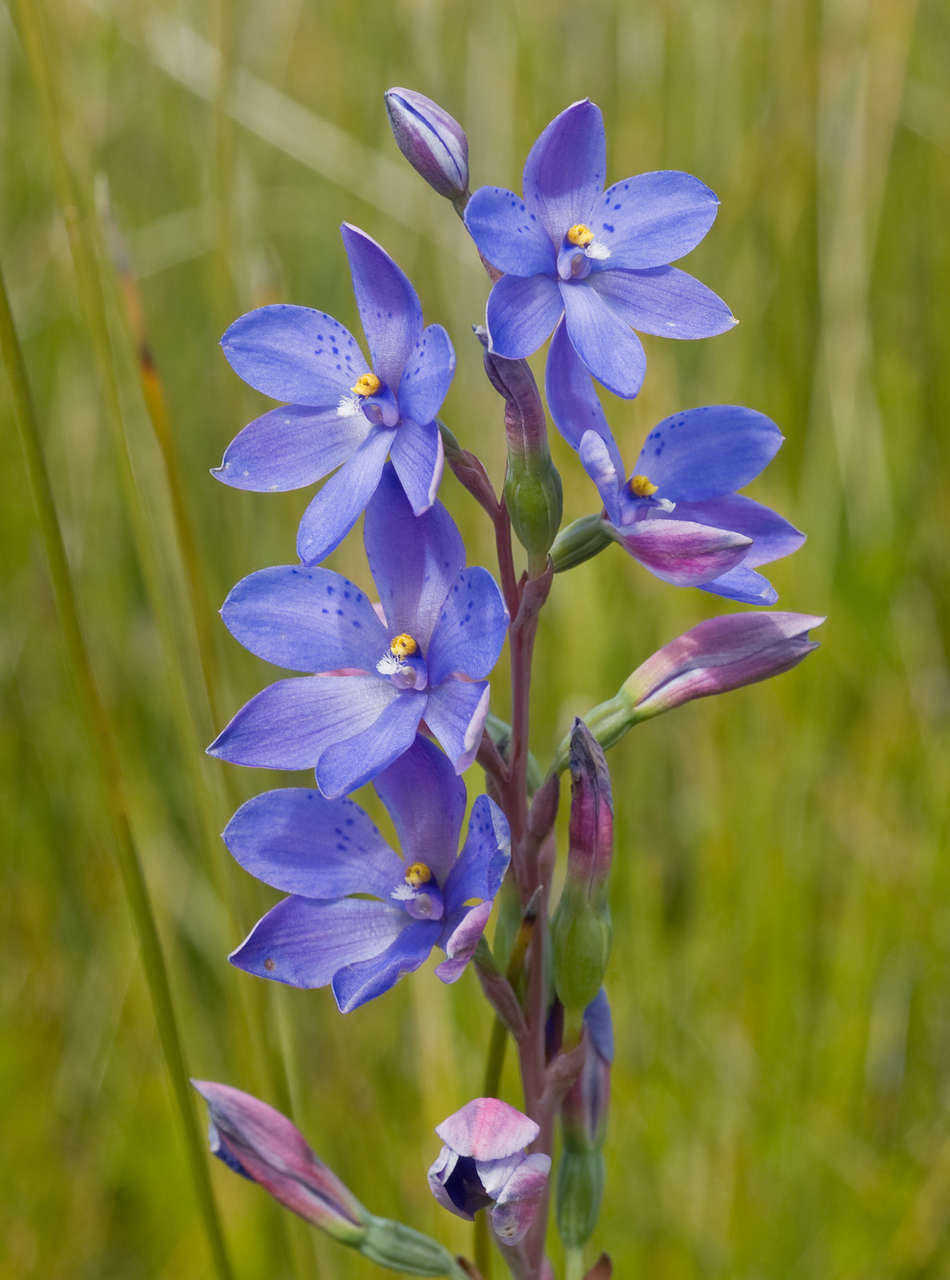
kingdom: Plantae
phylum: Tracheophyta
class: Liliopsida
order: Asparagales
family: Orchidaceae
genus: Thelymitra
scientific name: Thelymitra ixioides
